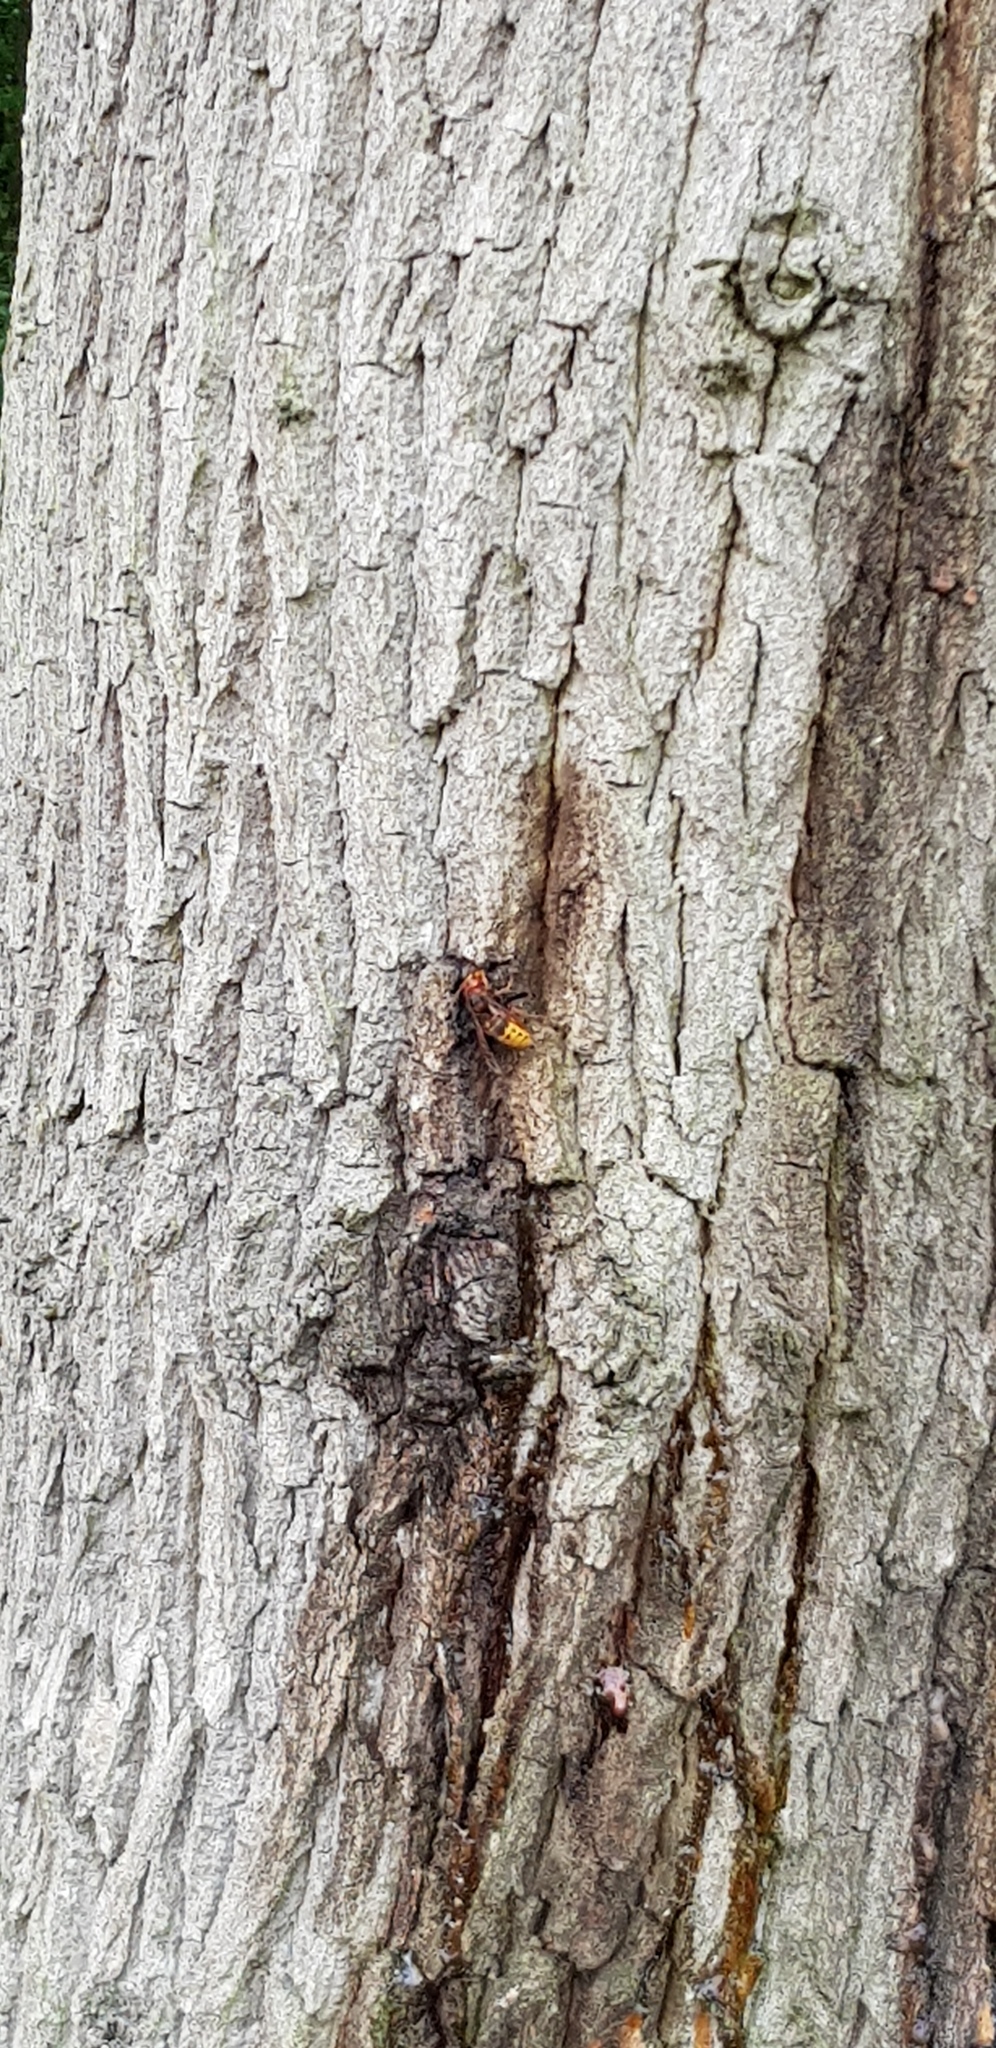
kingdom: Animalia
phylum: Arthropoda
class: Insecta
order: Hymenoptera
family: Vespidae
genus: Vespa
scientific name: Vespa crabro
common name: Hornet
